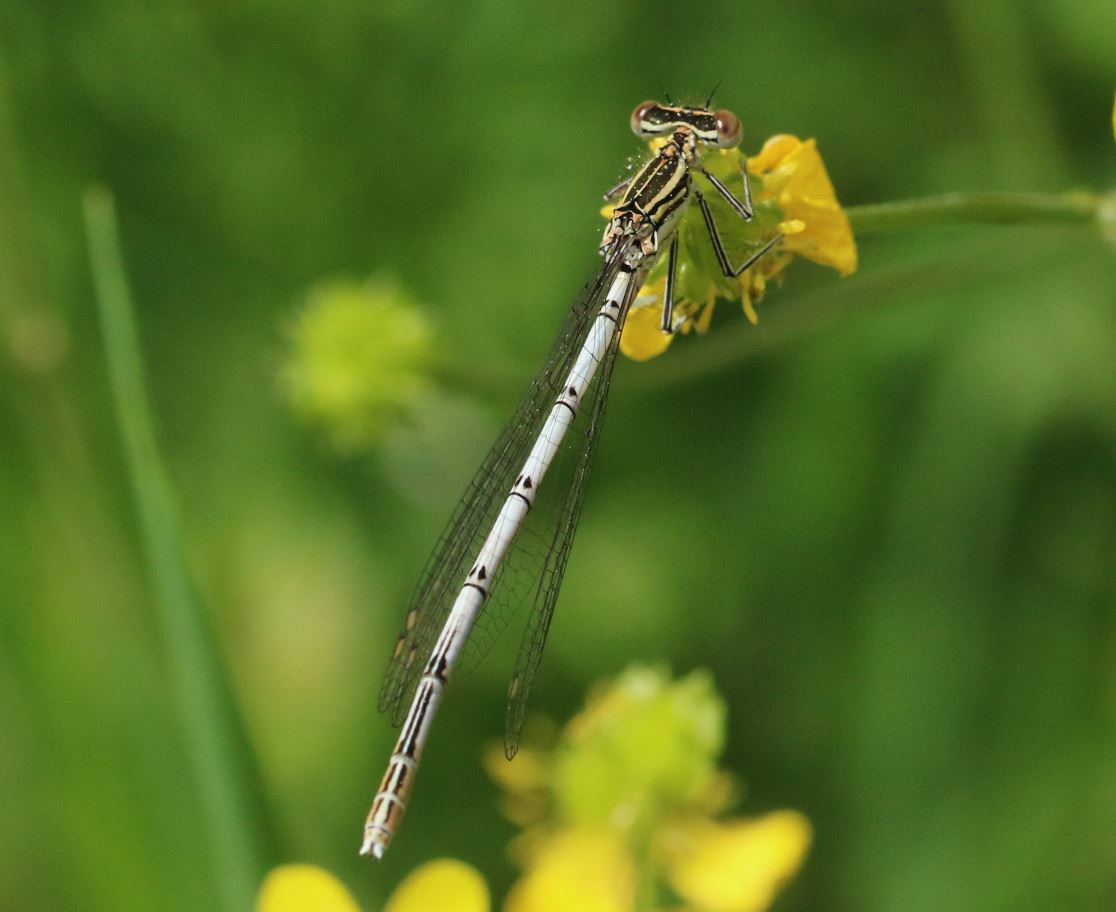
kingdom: Animalia
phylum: Arthropoda
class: Insecta
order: Odonata
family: Platycnemididae
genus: Platycnemis
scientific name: Platycnemis pennipes
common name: White-legged damselfly
